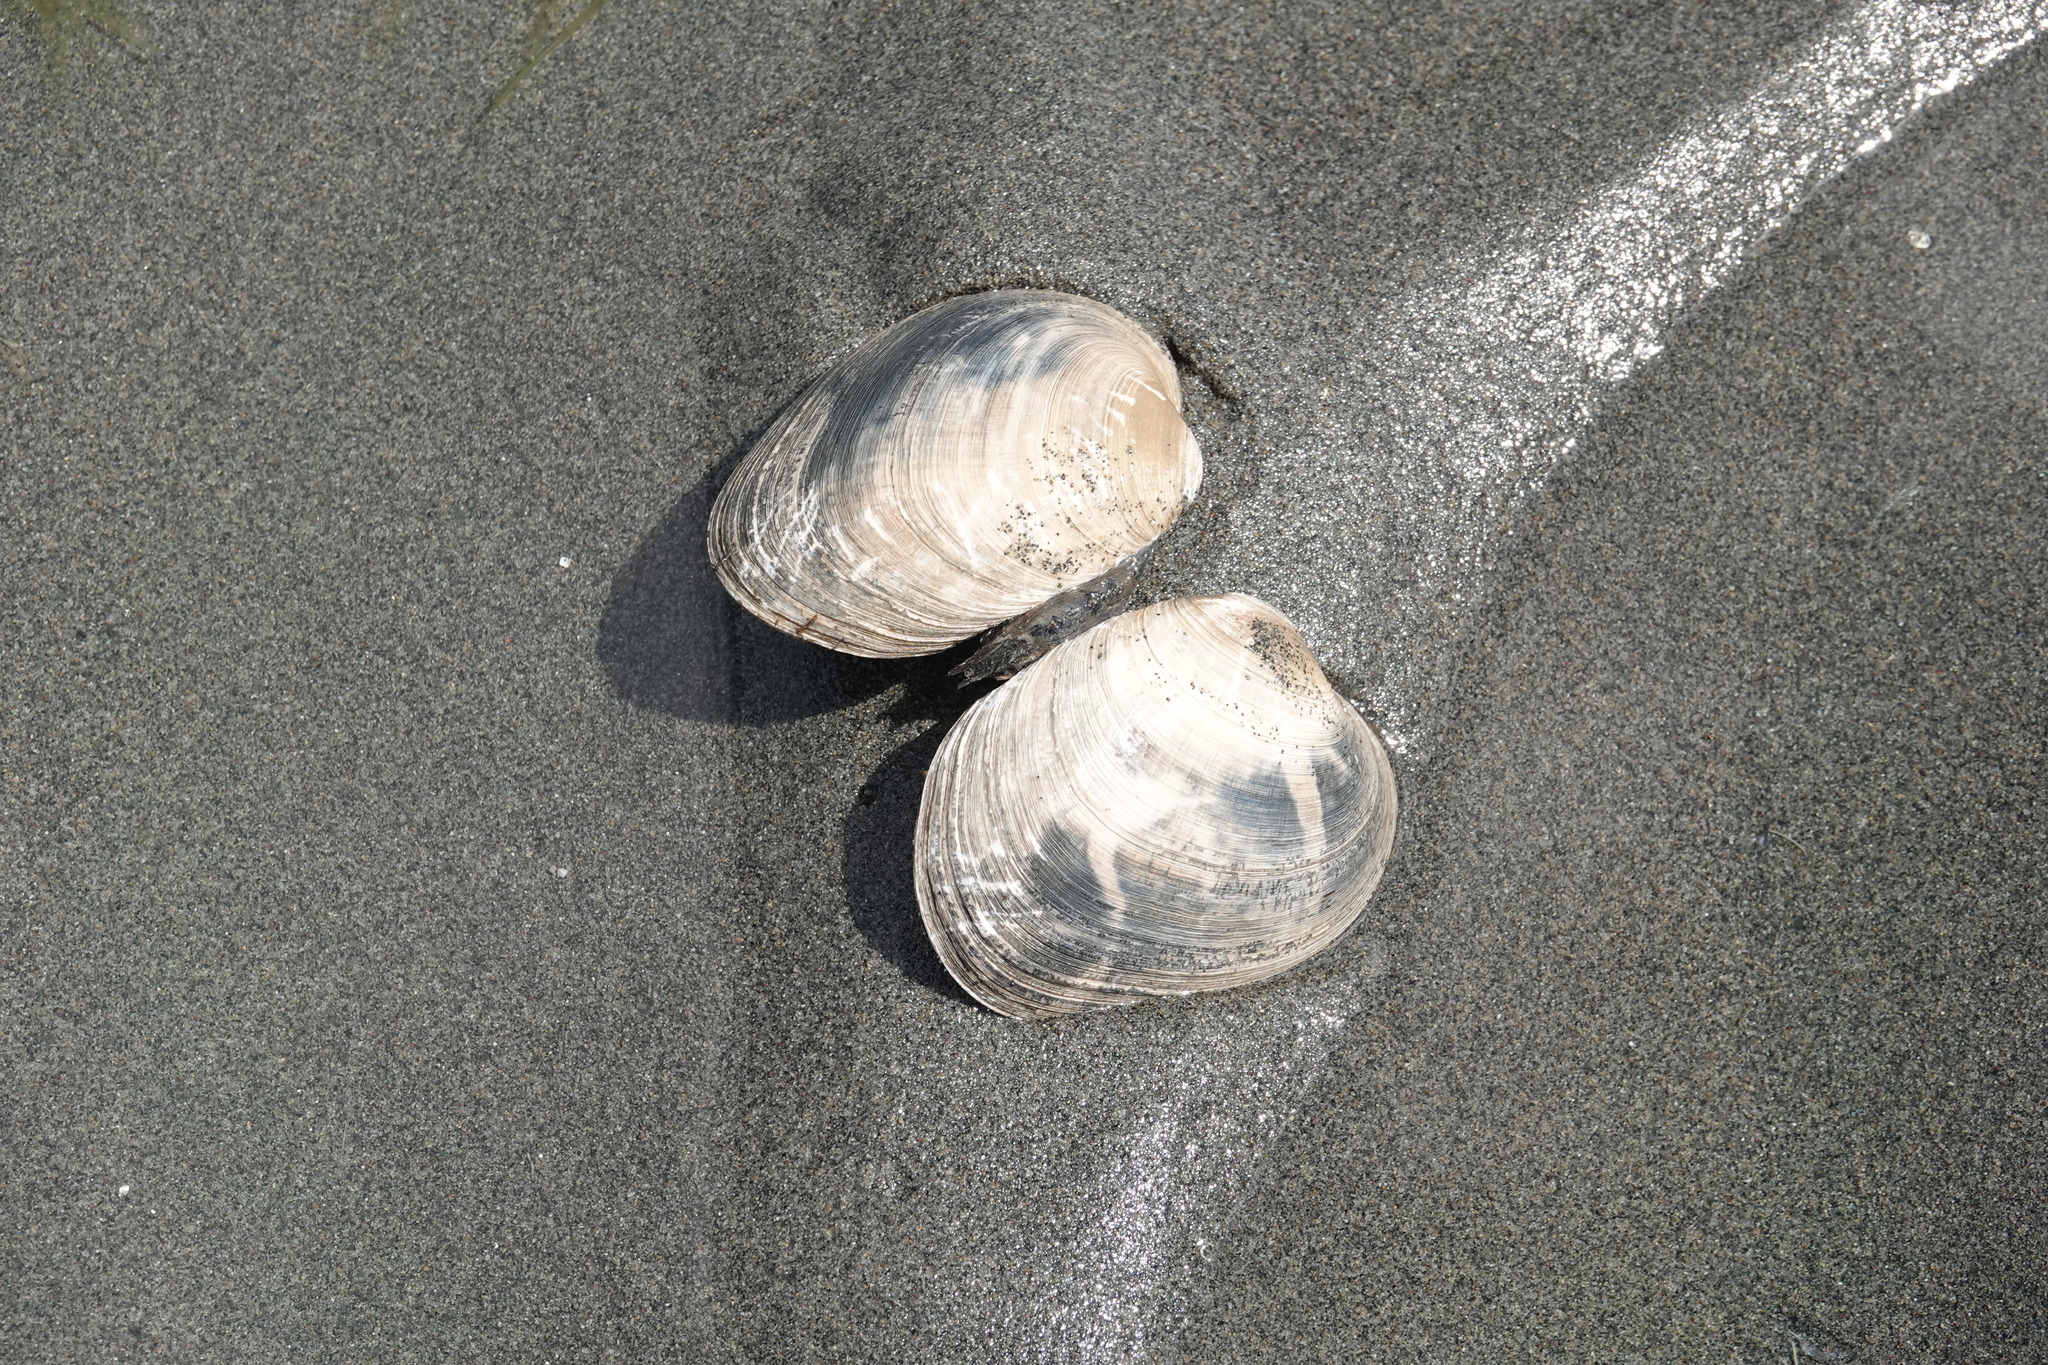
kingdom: Animalia
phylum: Mollusca
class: Bivalvia
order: Venerida
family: Veneridae
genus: Saxidomus
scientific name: Saxidomus gigantea
